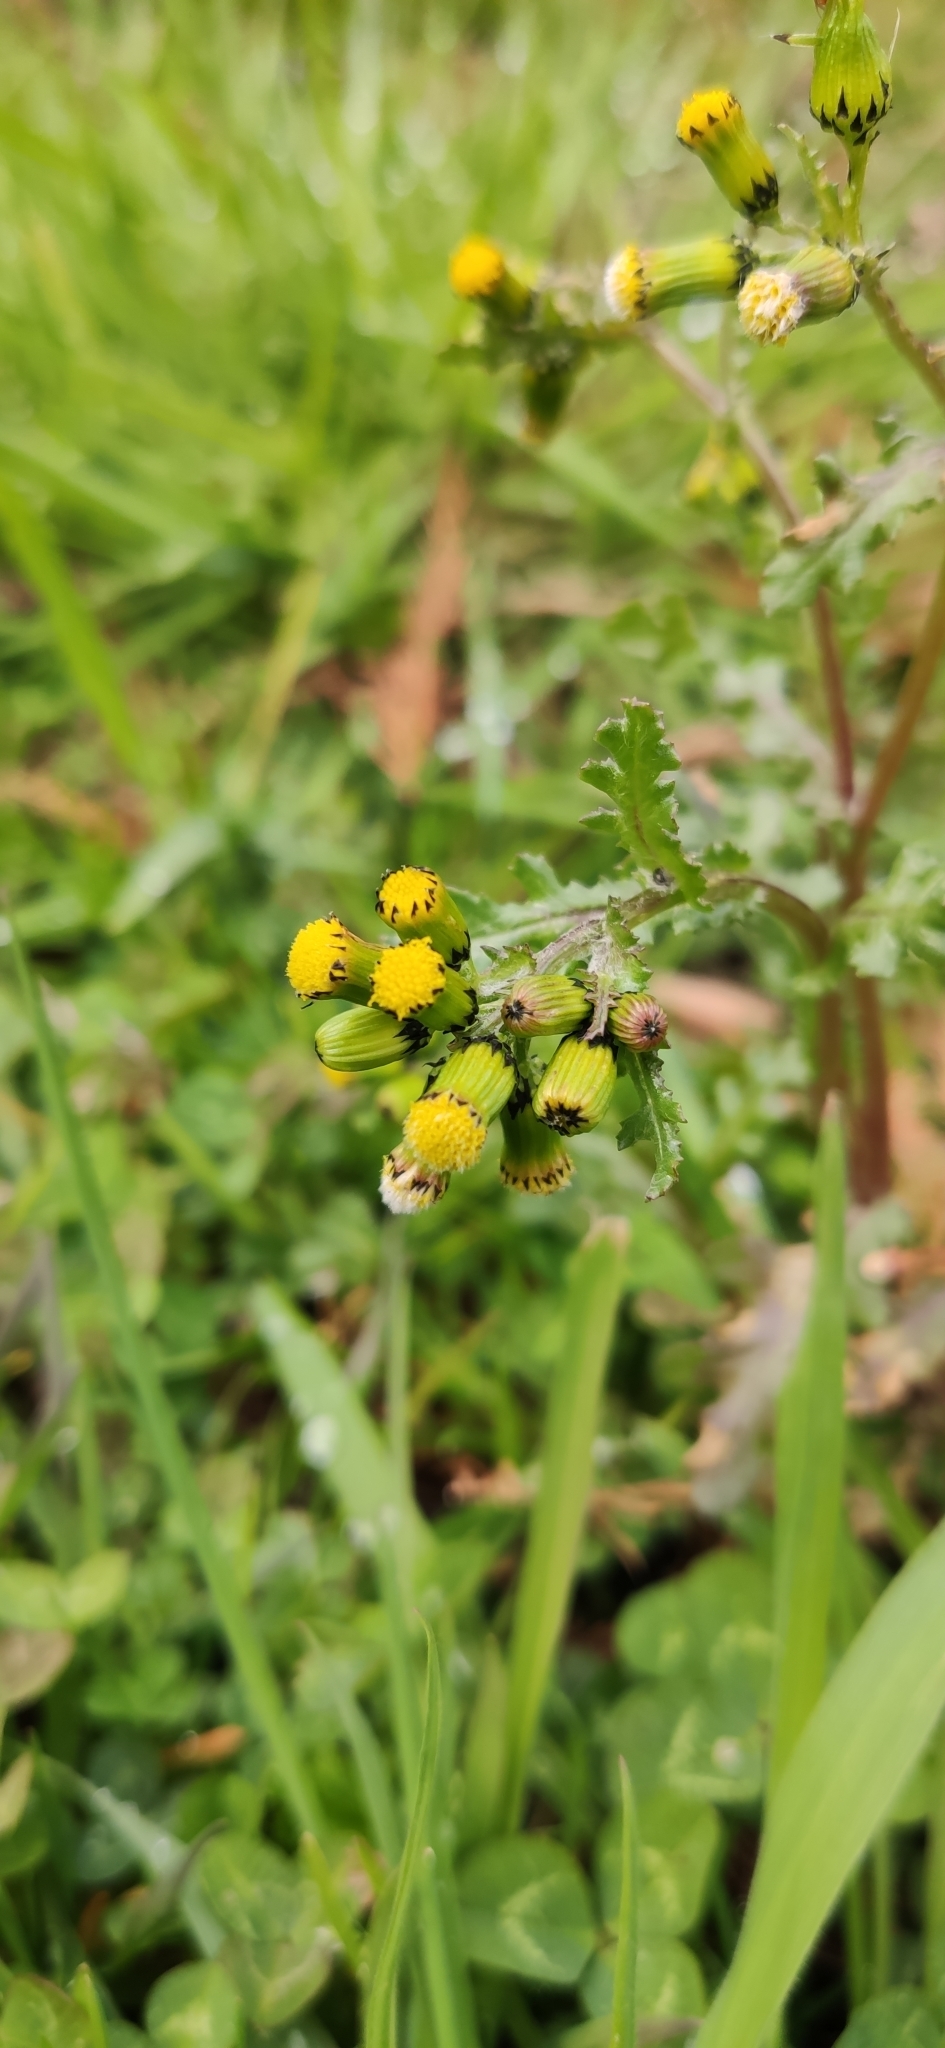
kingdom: Plantae
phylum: Tracheophyta
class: Magnoliopsida
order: Asterales
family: Asteraceae
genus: Senecio
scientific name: Senecio vulgaris
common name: Old-man-in-the-spring
